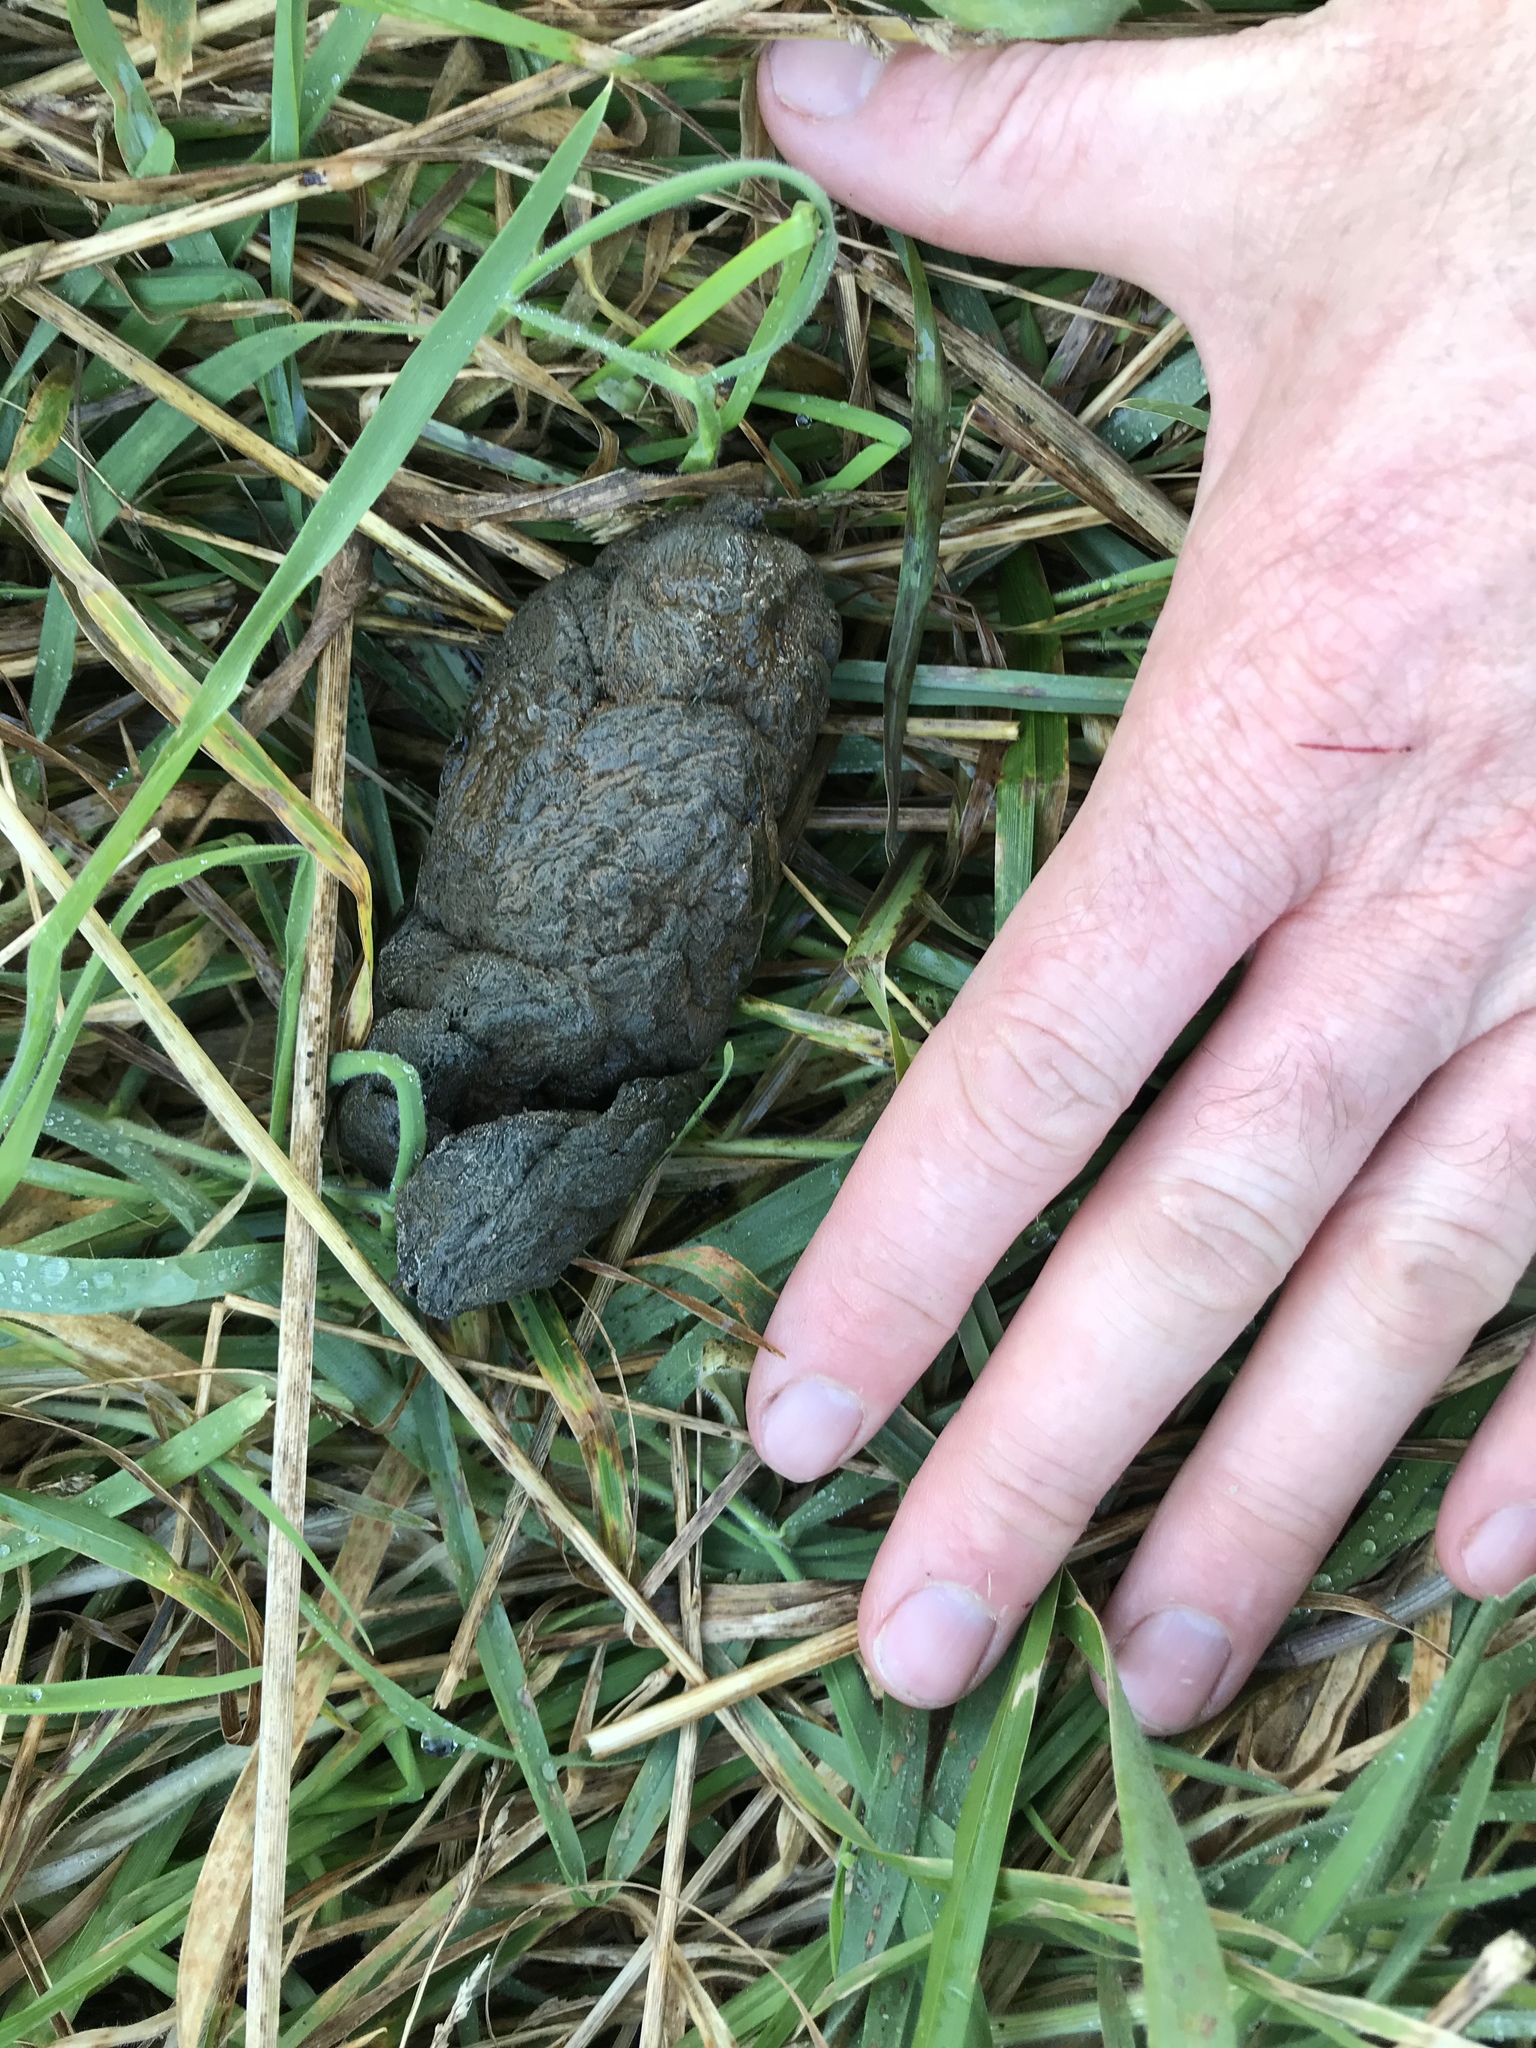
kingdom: Animalia
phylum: Chordata
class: Mammalia
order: Artiodactyla
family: Bovidae
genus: Ovis
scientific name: Ovis aries
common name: Domestic sheep
